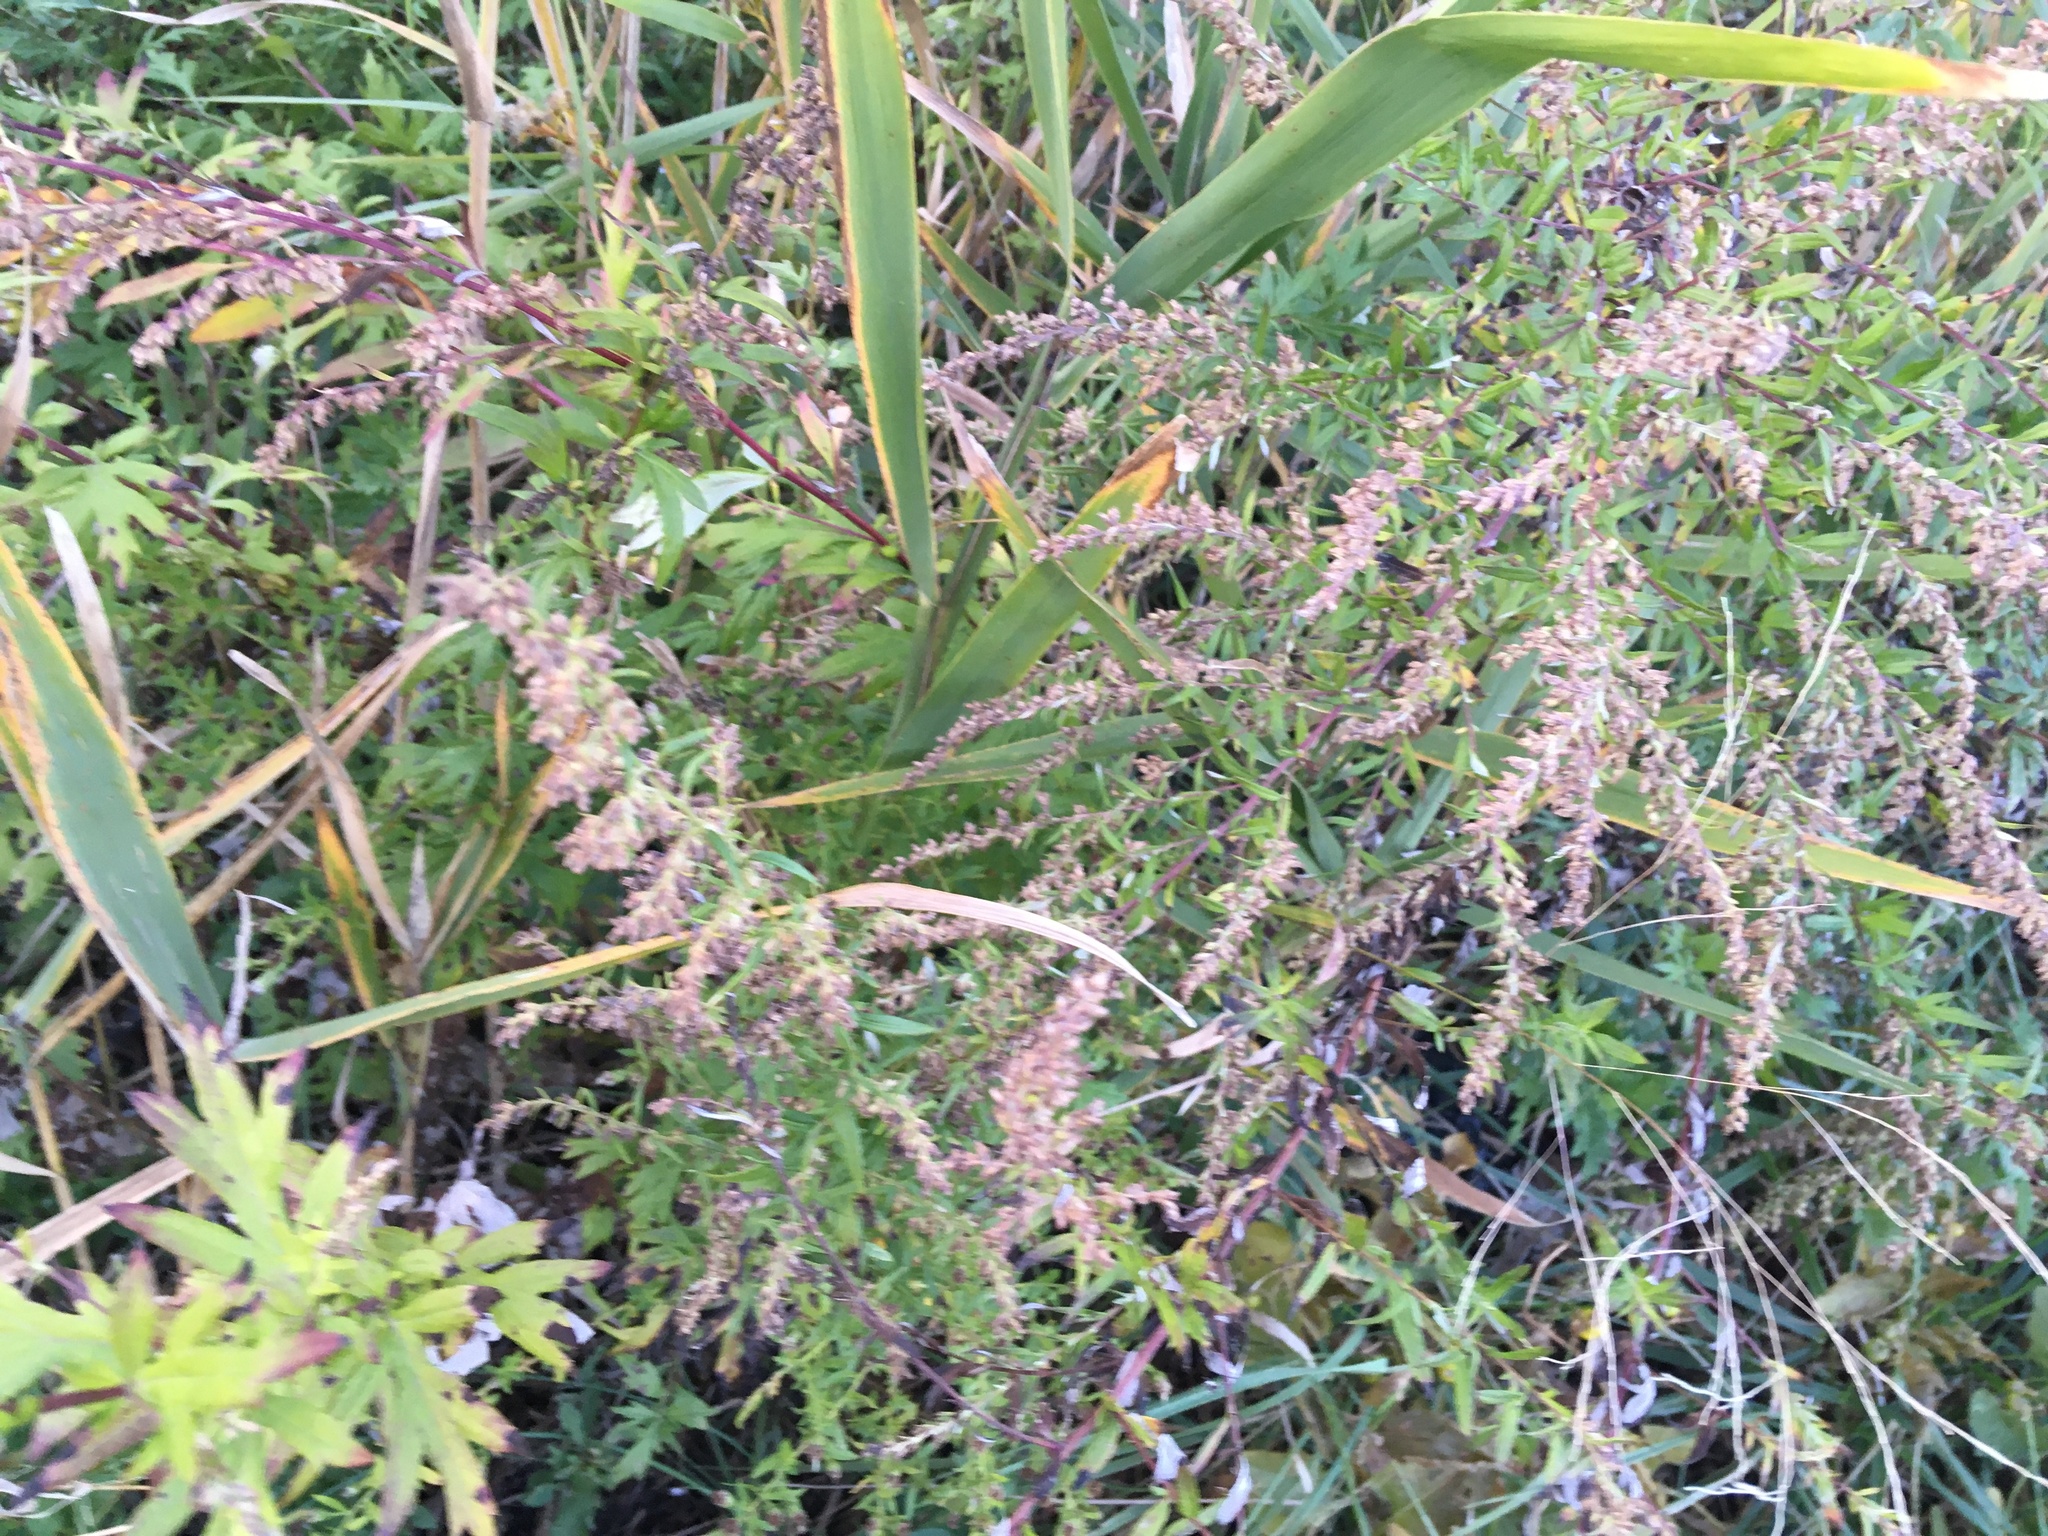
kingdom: Plantae
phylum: Tracheophyta
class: Magnoliopsida
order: Asterales
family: Asteraceae
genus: Artemisia
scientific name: Artemisia vulgaris
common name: Mugwort
